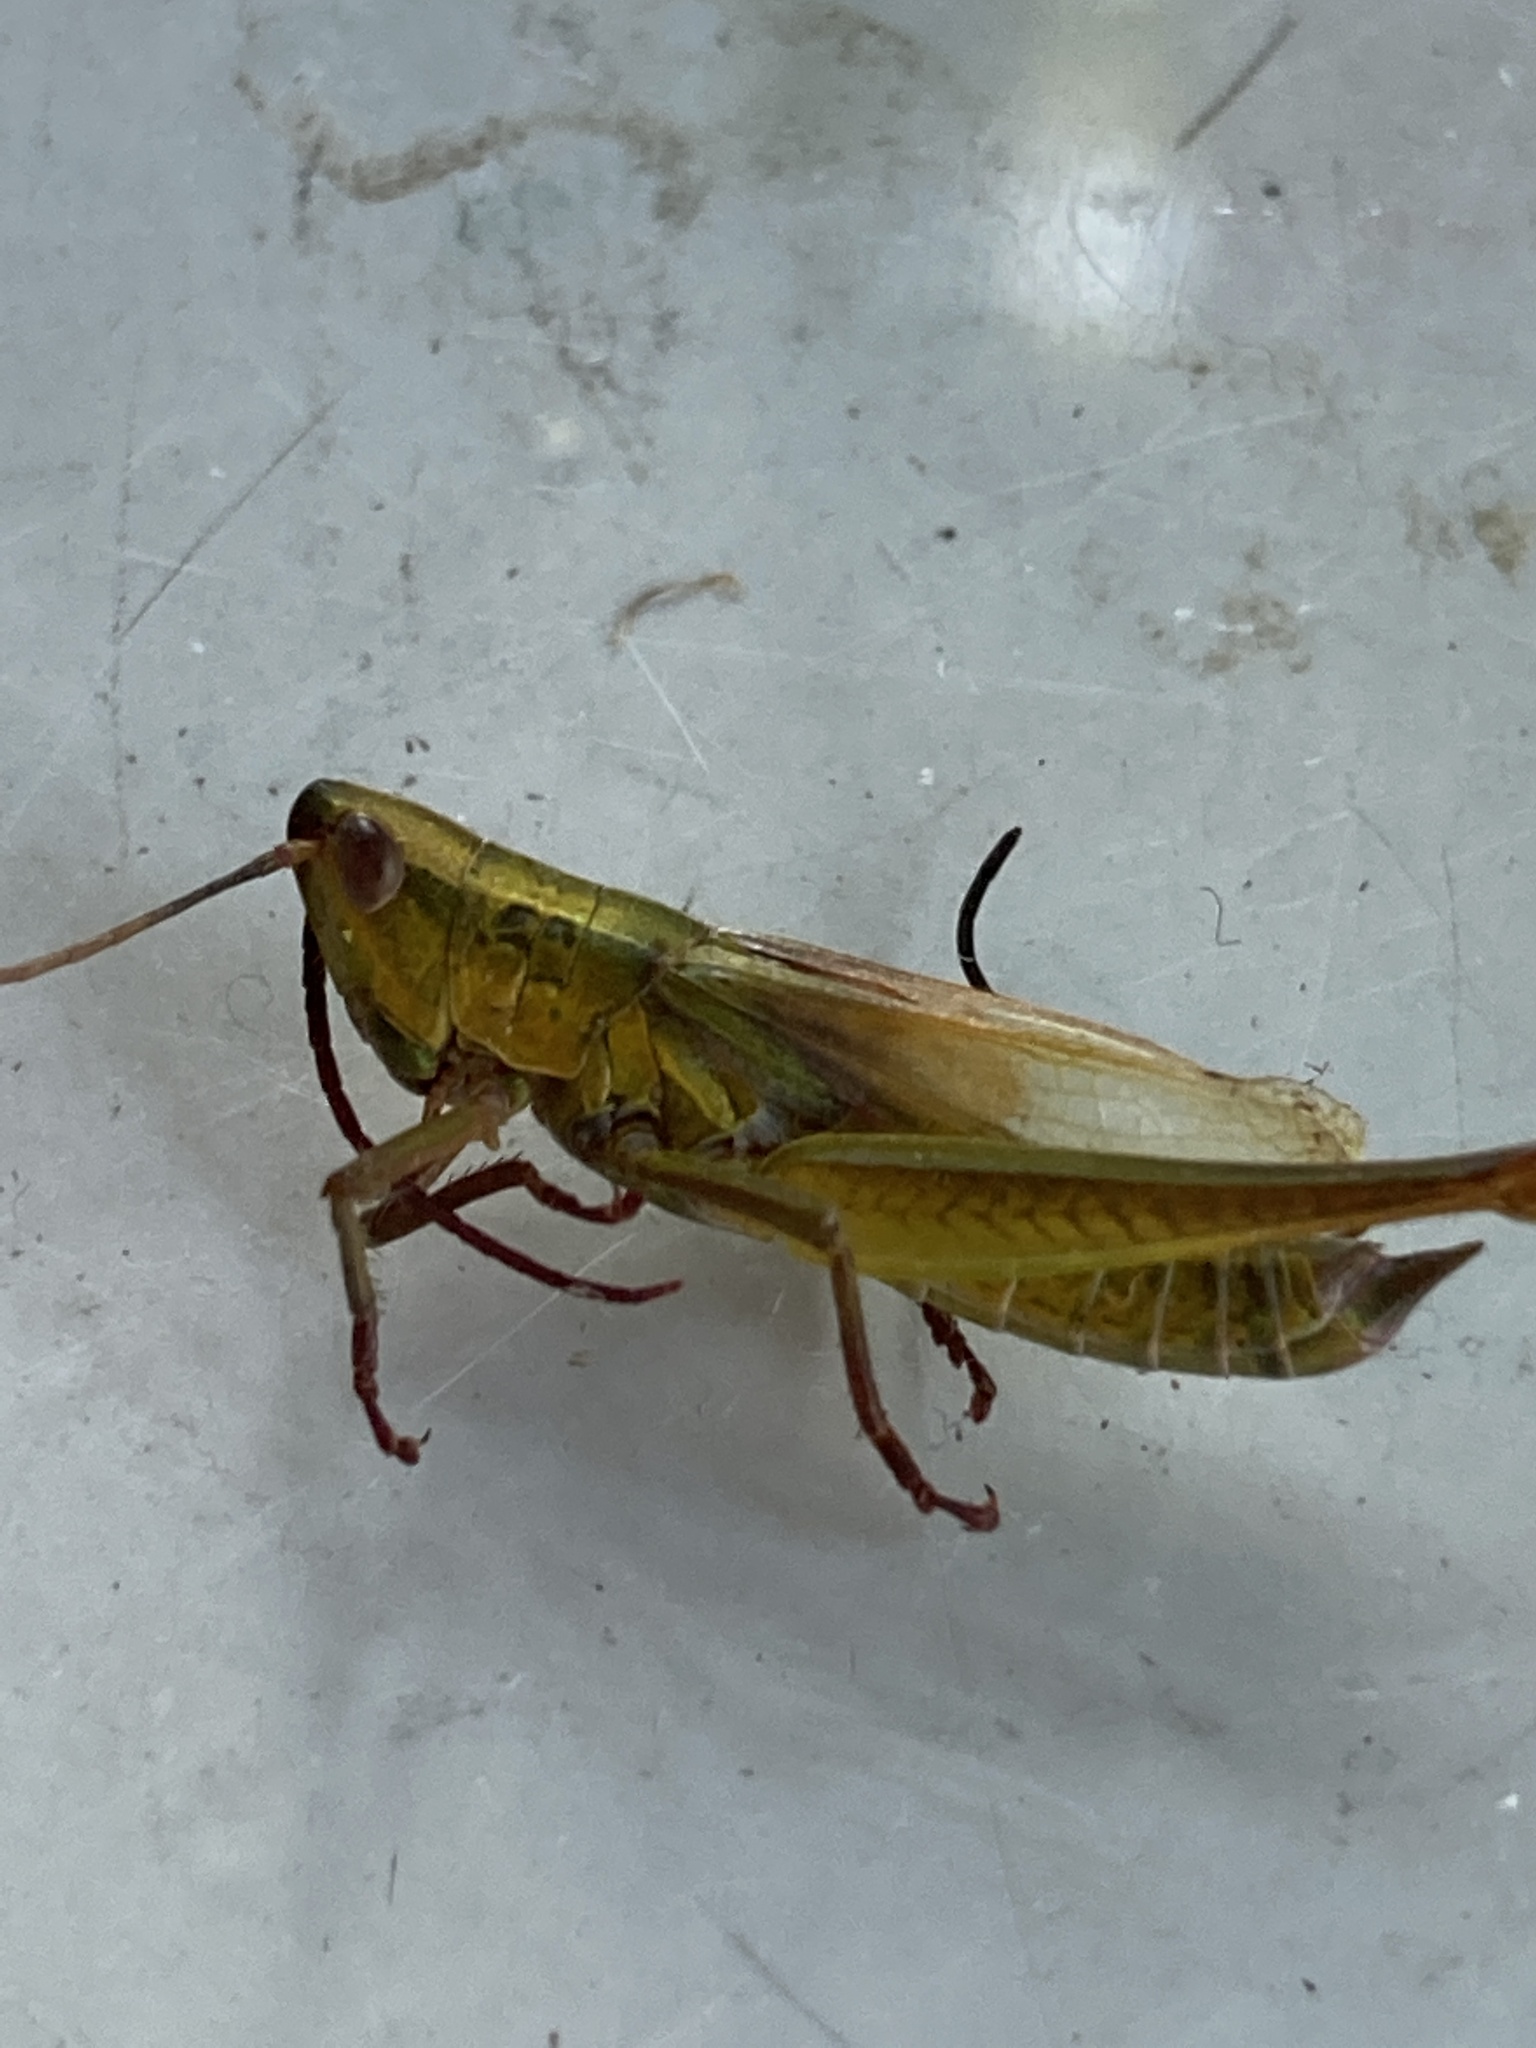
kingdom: Animalia
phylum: Arthropoda
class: Insecta
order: Orthoptera
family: Acrididae
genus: Euthystira
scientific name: Euthystira brachyptera
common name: Small gold grasshopper
